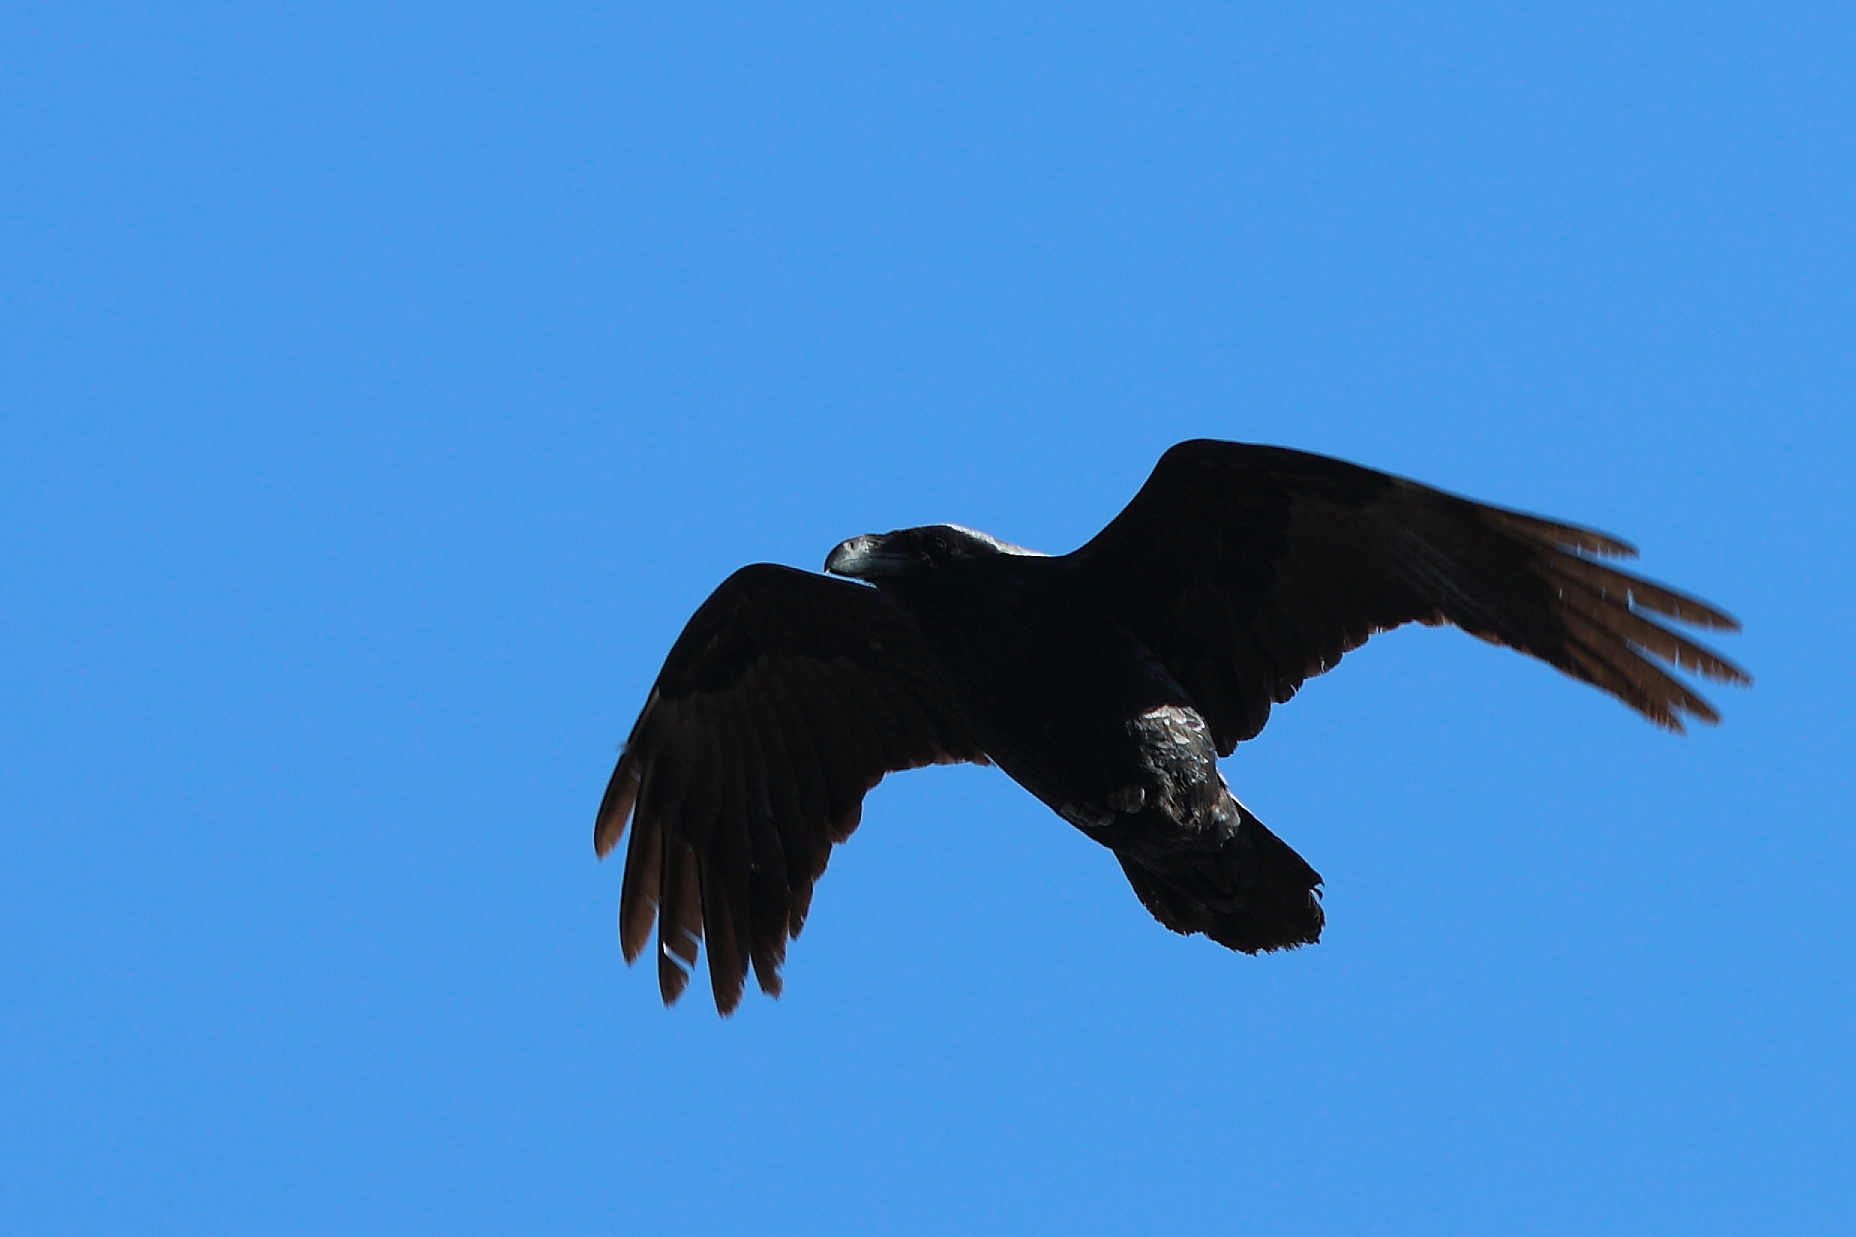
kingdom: Animalia
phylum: Chordata
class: Aves
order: Passeriformes
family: Corvidae
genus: Corvus
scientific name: Corvus corax
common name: Common raven
